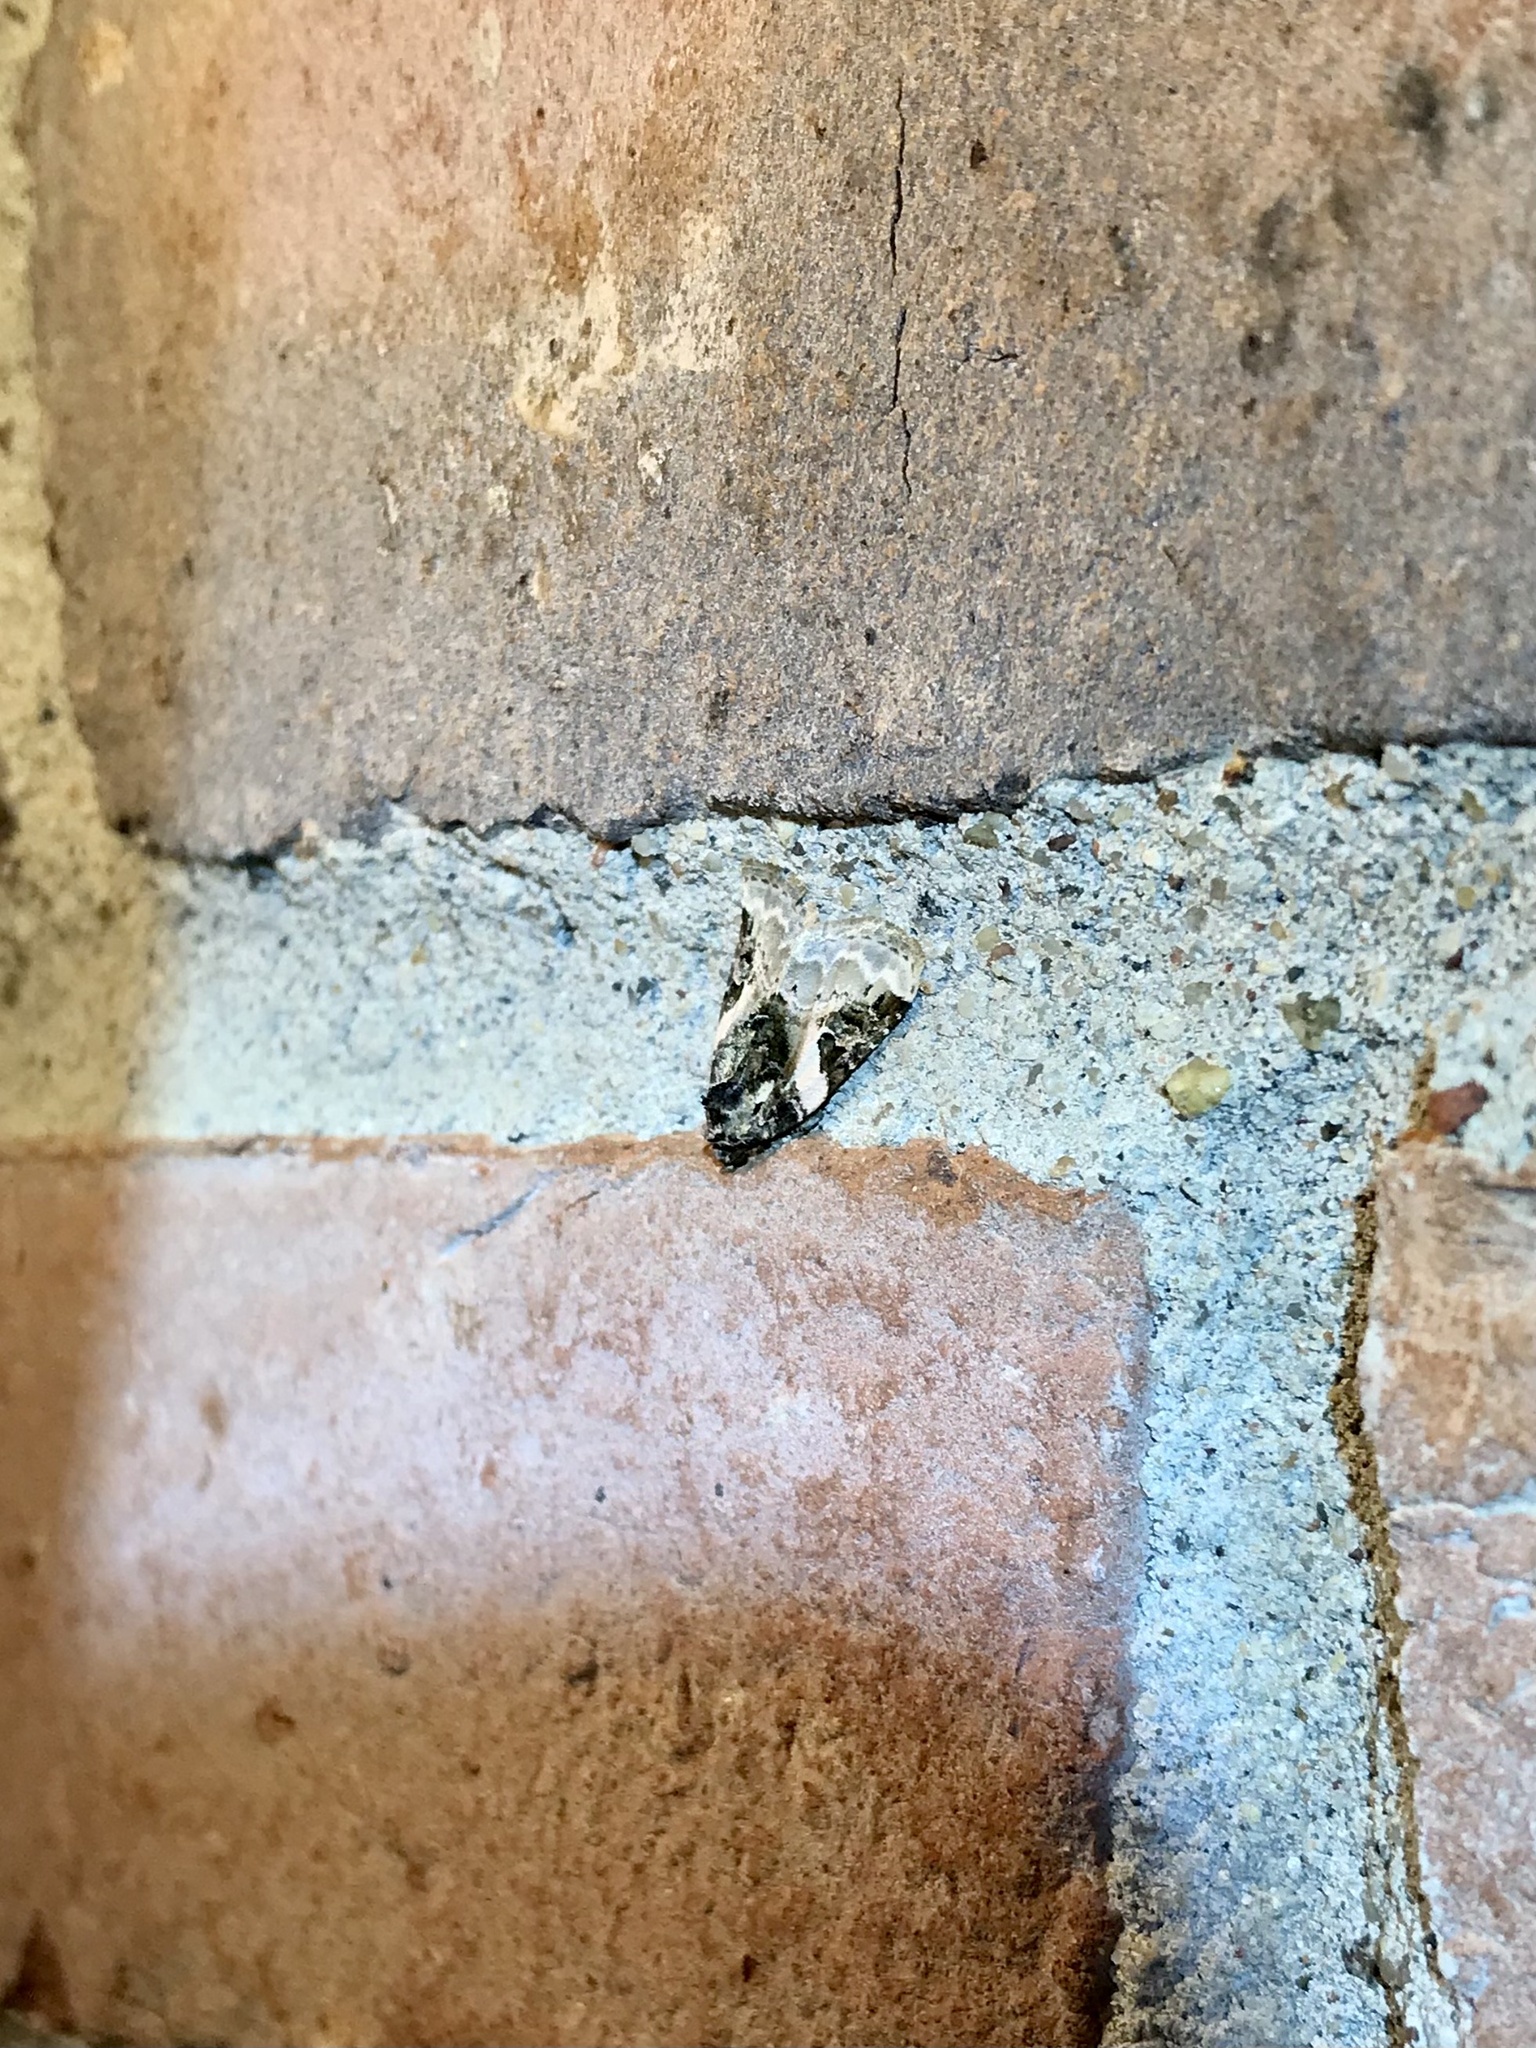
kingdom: Animalia
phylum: Arthropoda
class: Insecta
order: Lepidoptera
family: Noctuidae
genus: Pseudeustrotia
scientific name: Pseudeustrotia carneola
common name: Pink-barred lithacodia moth
